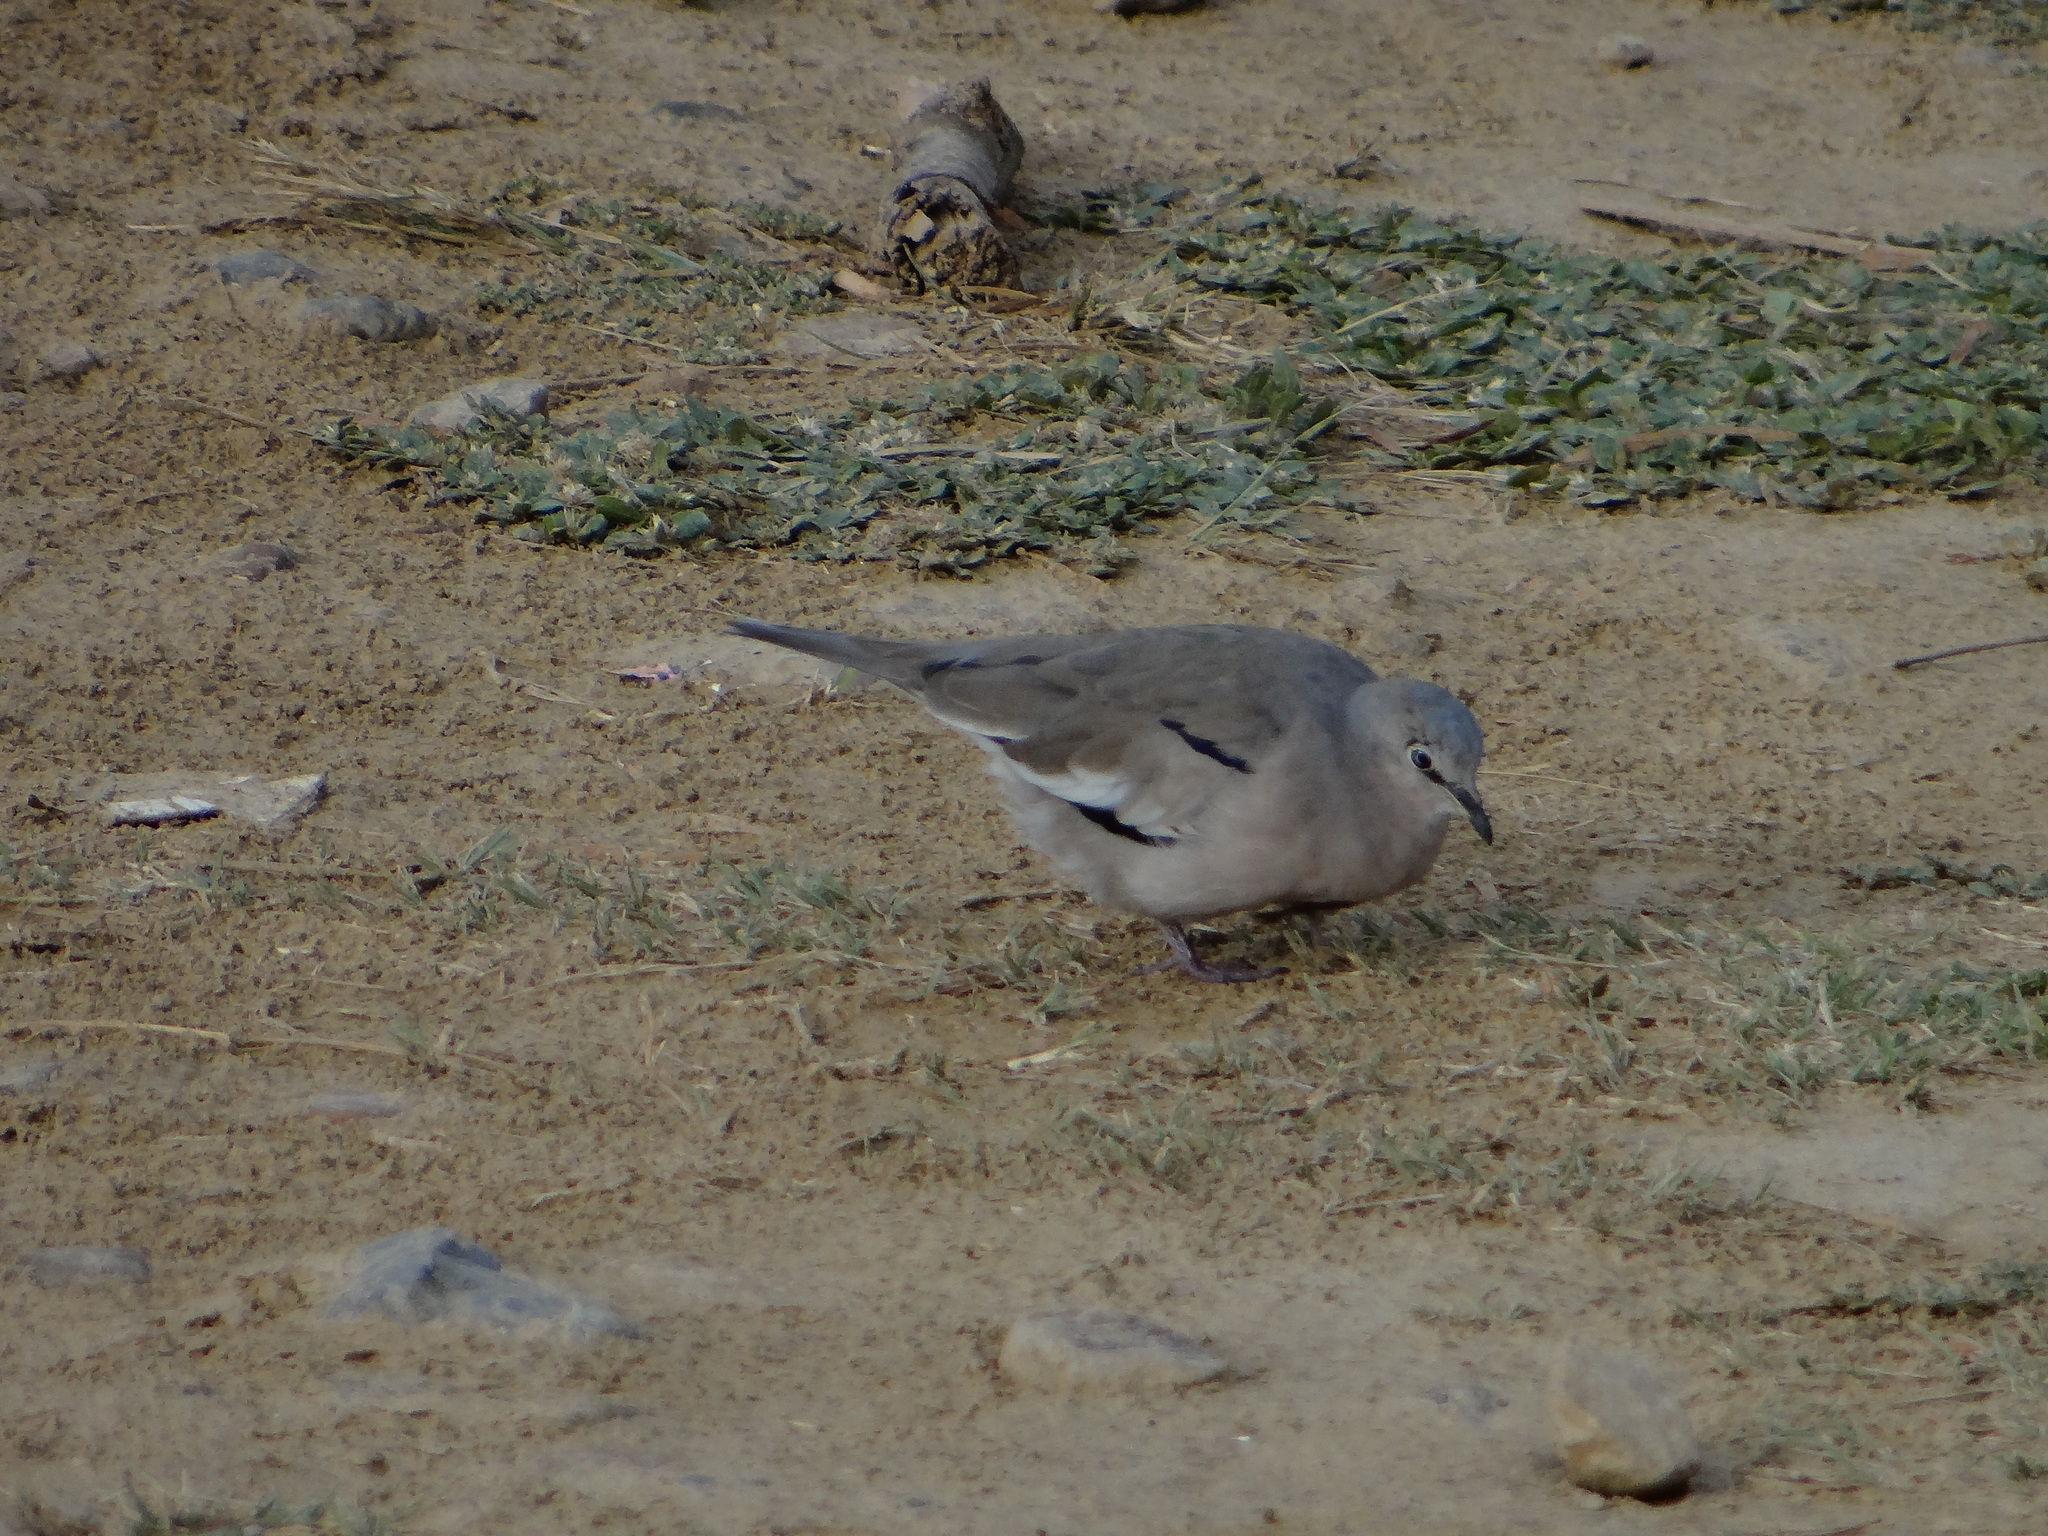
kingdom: Animalia
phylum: Chordata
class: Aves
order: Columbiformes
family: Columbidae
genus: Columbina
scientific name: Columbina picui
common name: Picui ground dove
